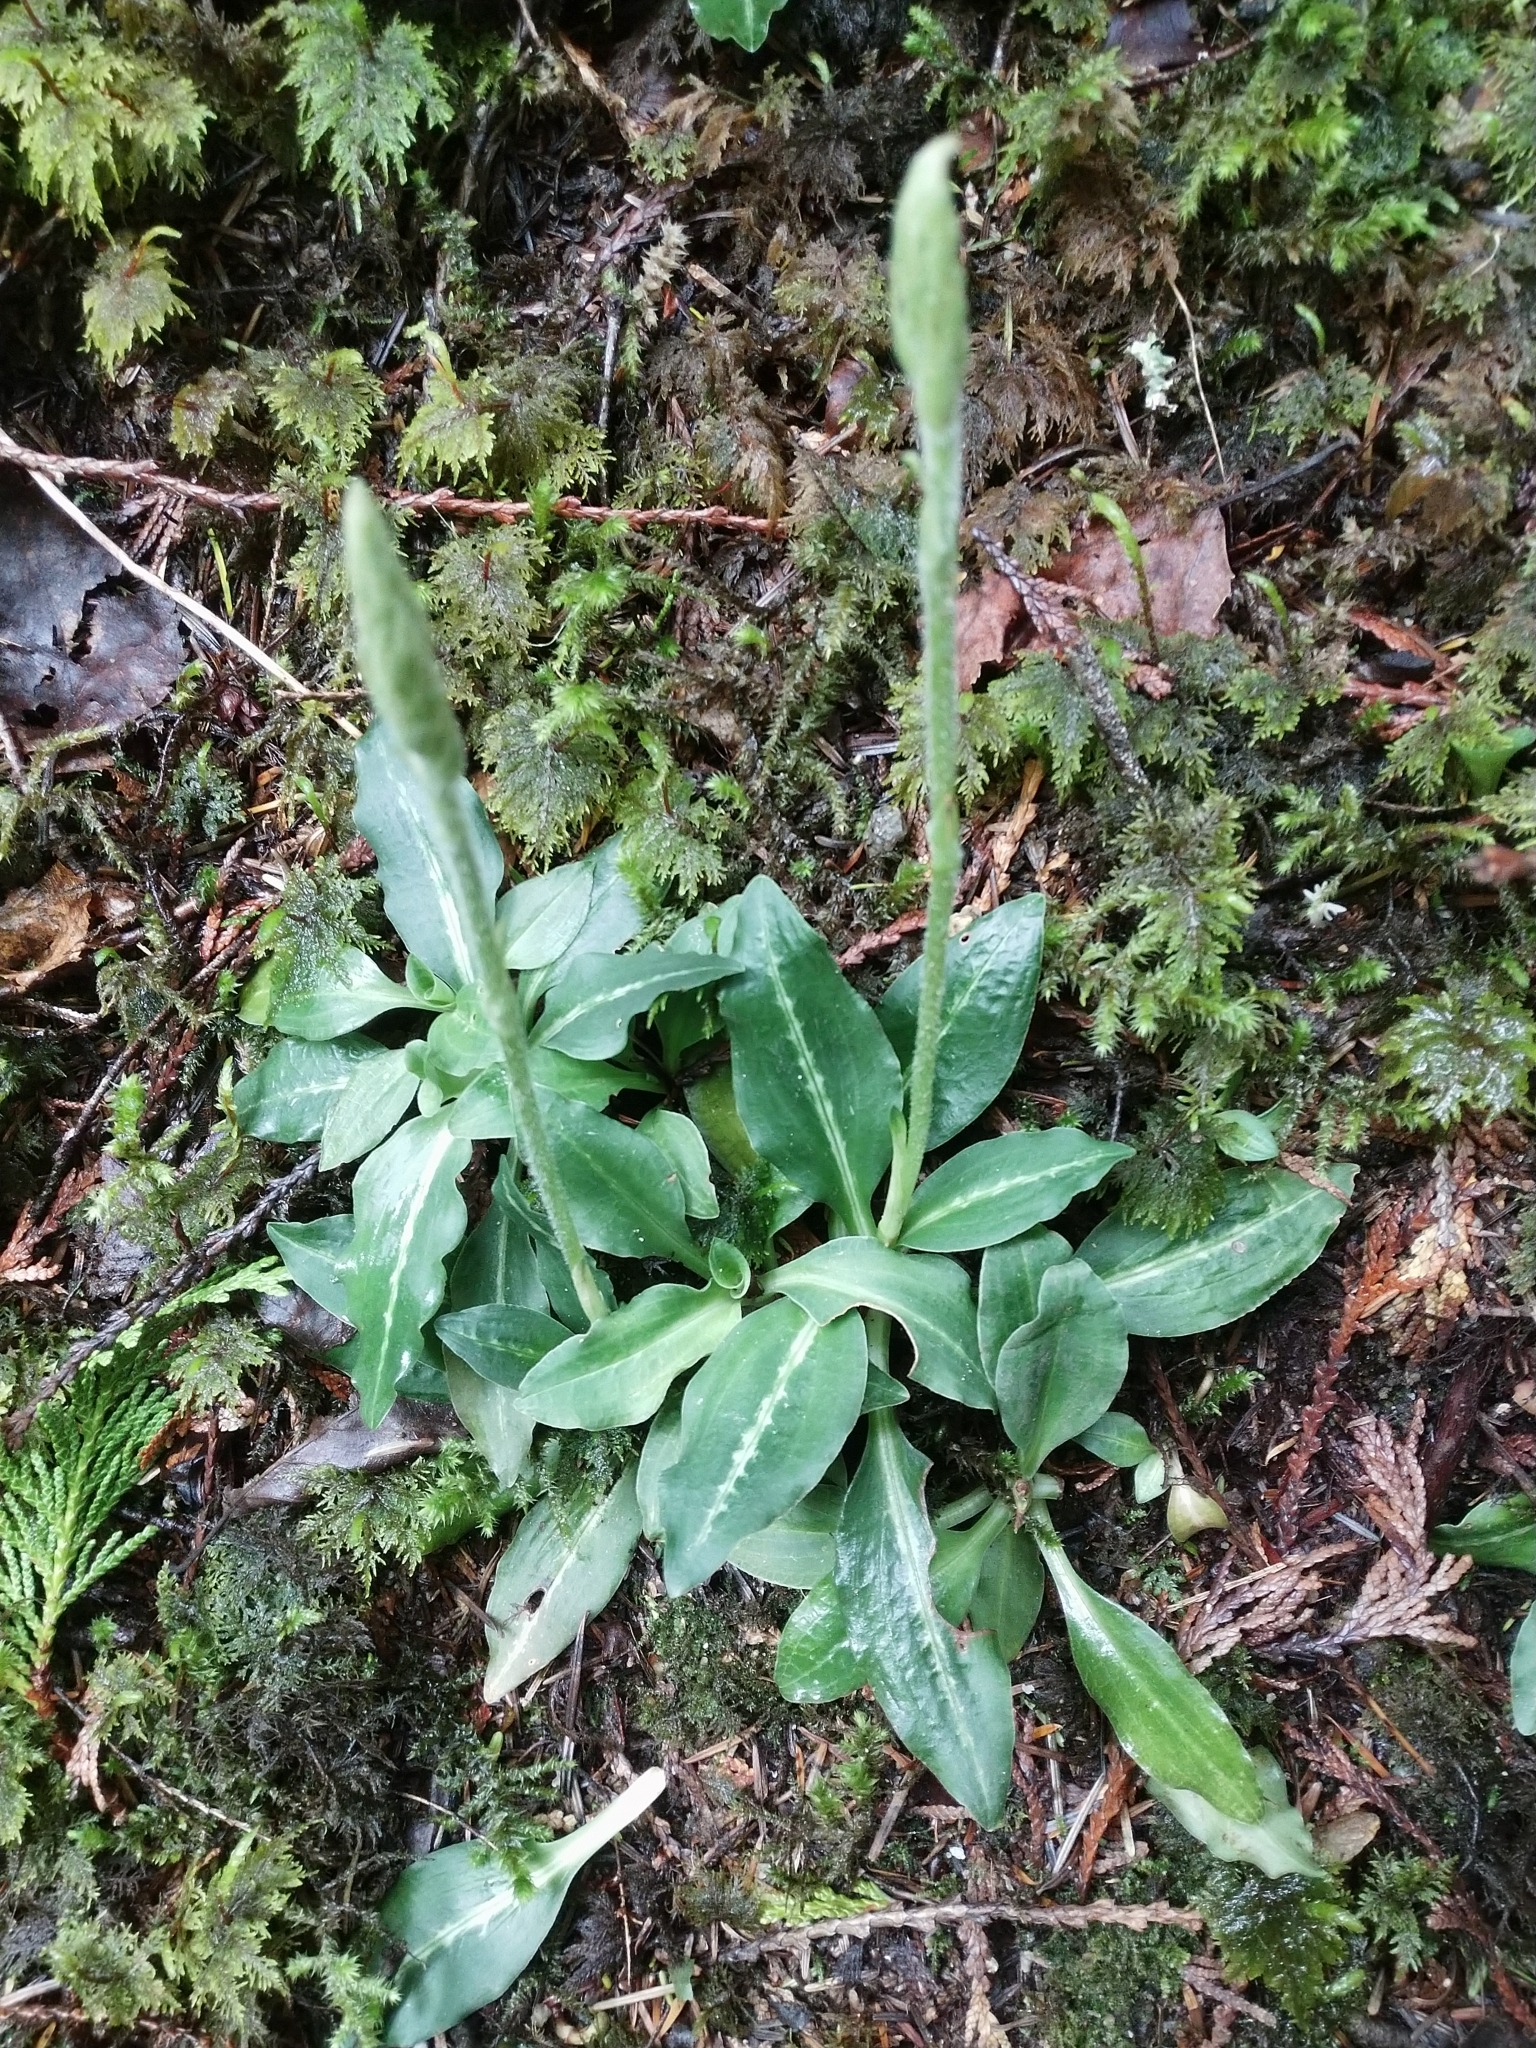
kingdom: Plantae
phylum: Tracheophyta
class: Liliopsida
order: Asparagales
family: Orchidaceae
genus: Goodyera
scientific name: Goodyera oblongifolia
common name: Giant rattlesnake-plantain
